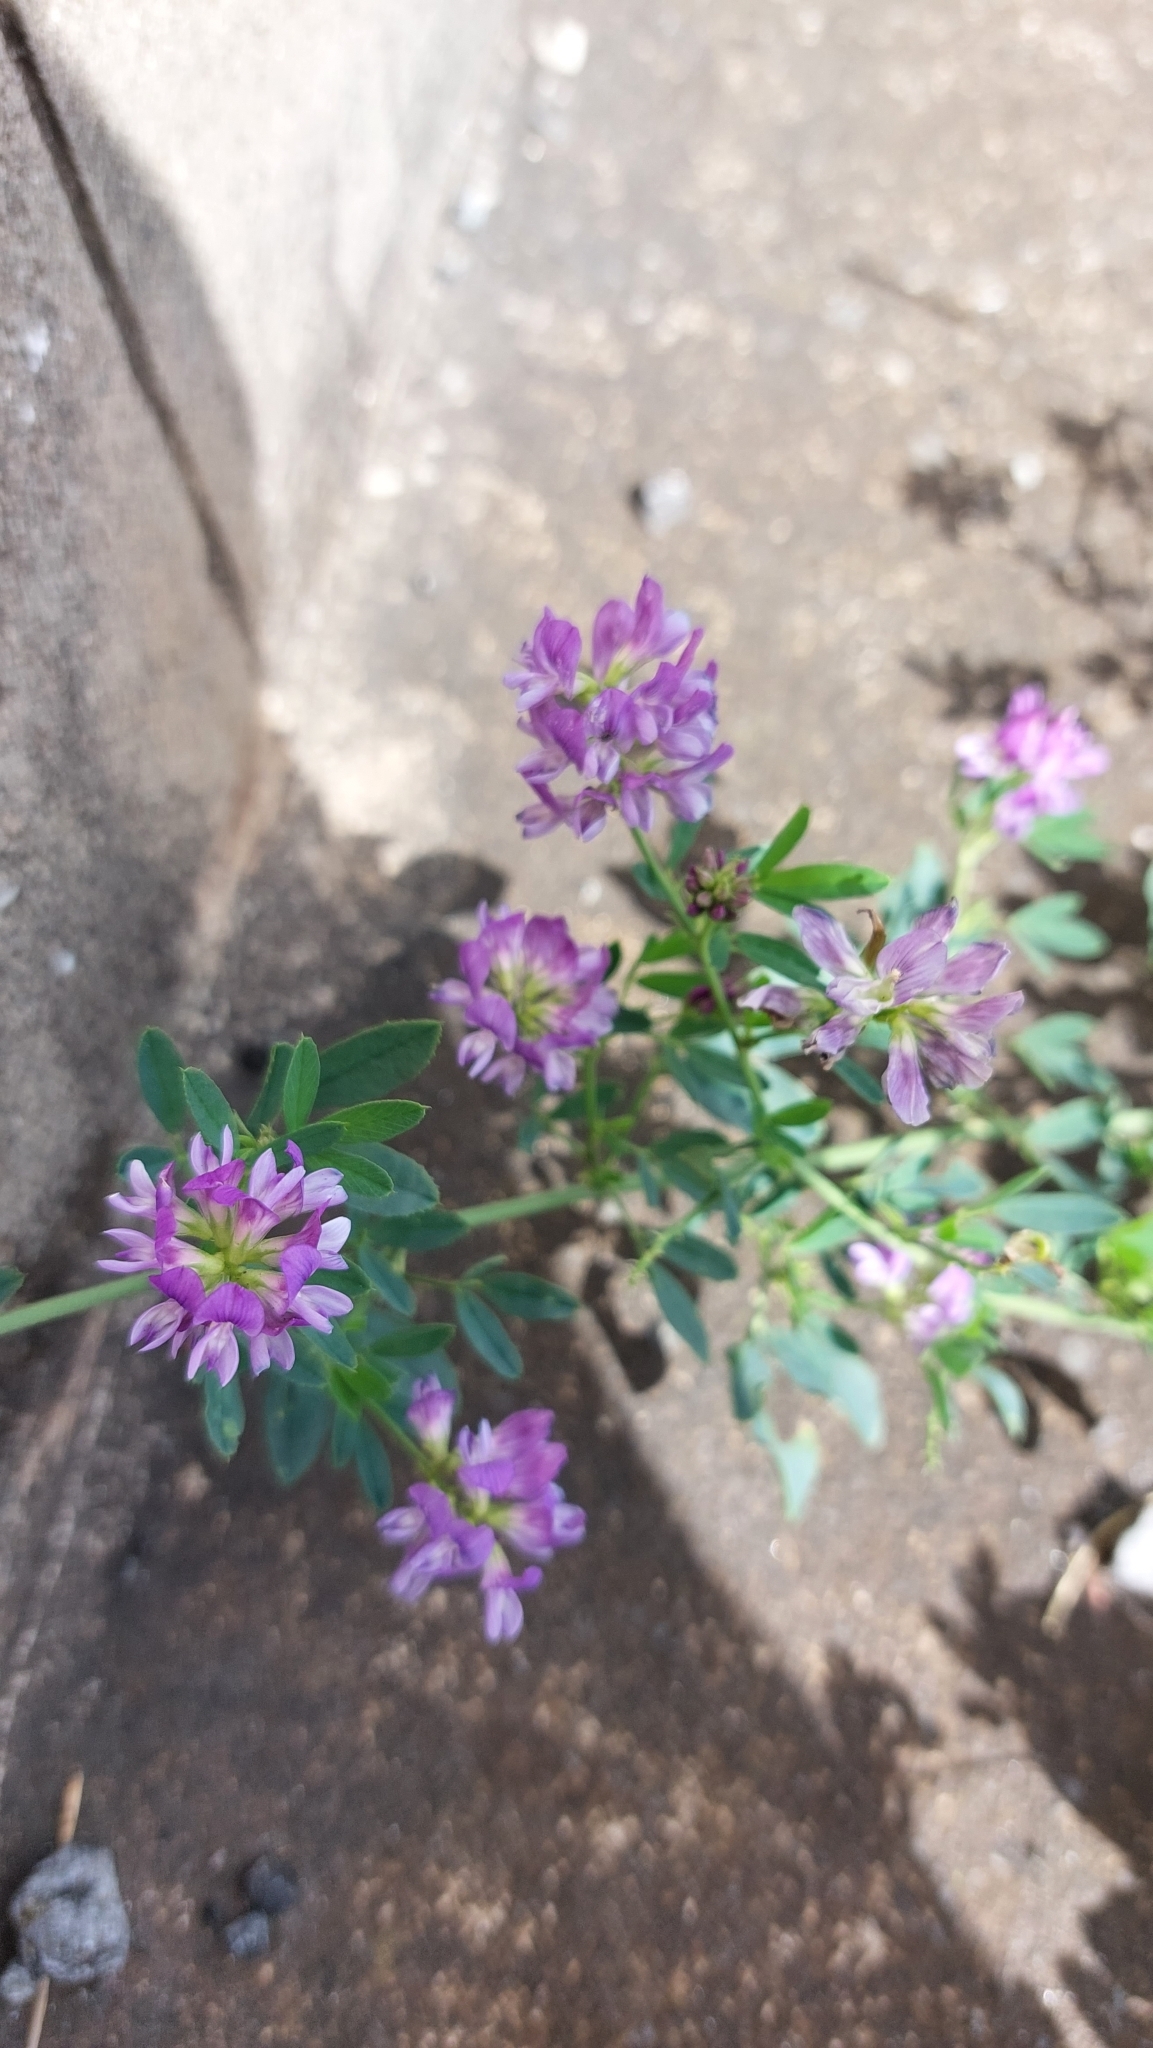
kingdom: Plantae
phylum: Tracheophyta
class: Magnoliopsida
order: Fabales
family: Fabaceae
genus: Medicago
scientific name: Medicago sativa
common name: Alfalfa
